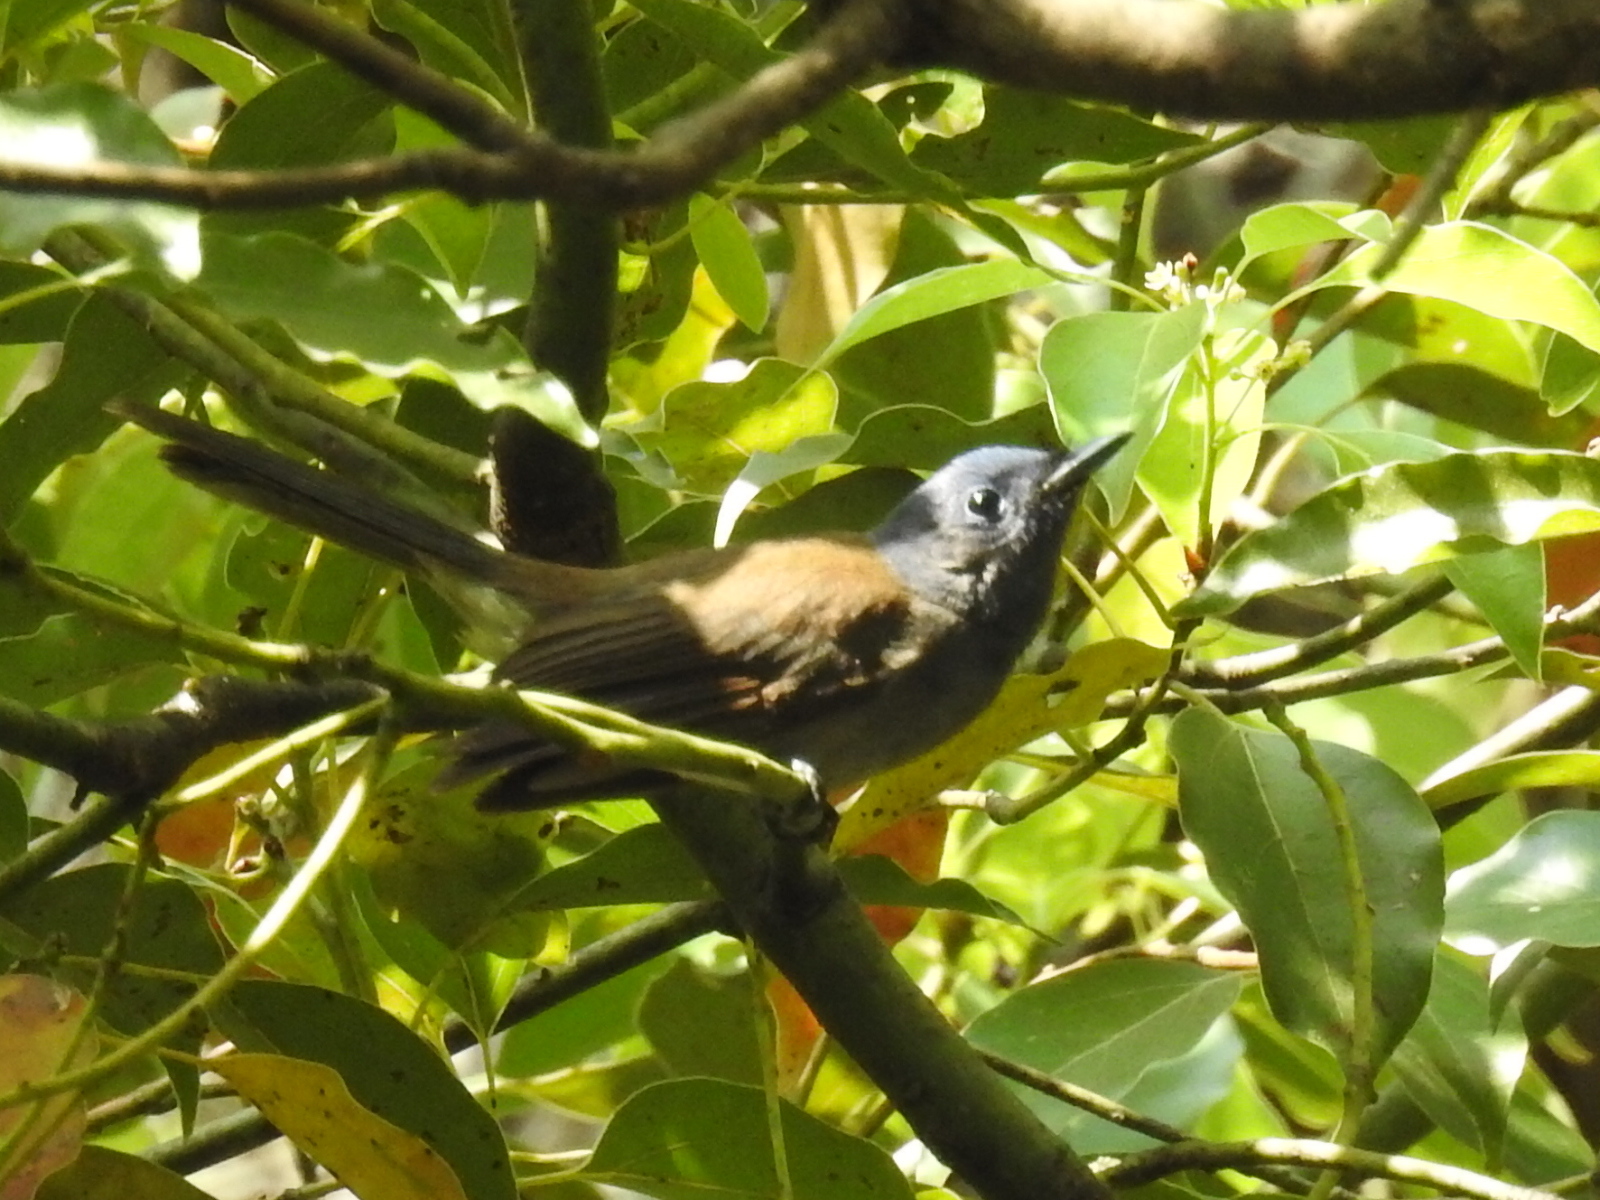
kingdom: Animalia
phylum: Chordata
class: Aves
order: Passeriformes
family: Monarchidae
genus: Hypothymis
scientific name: Hypothymis azurea
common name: Black-naped monarch
